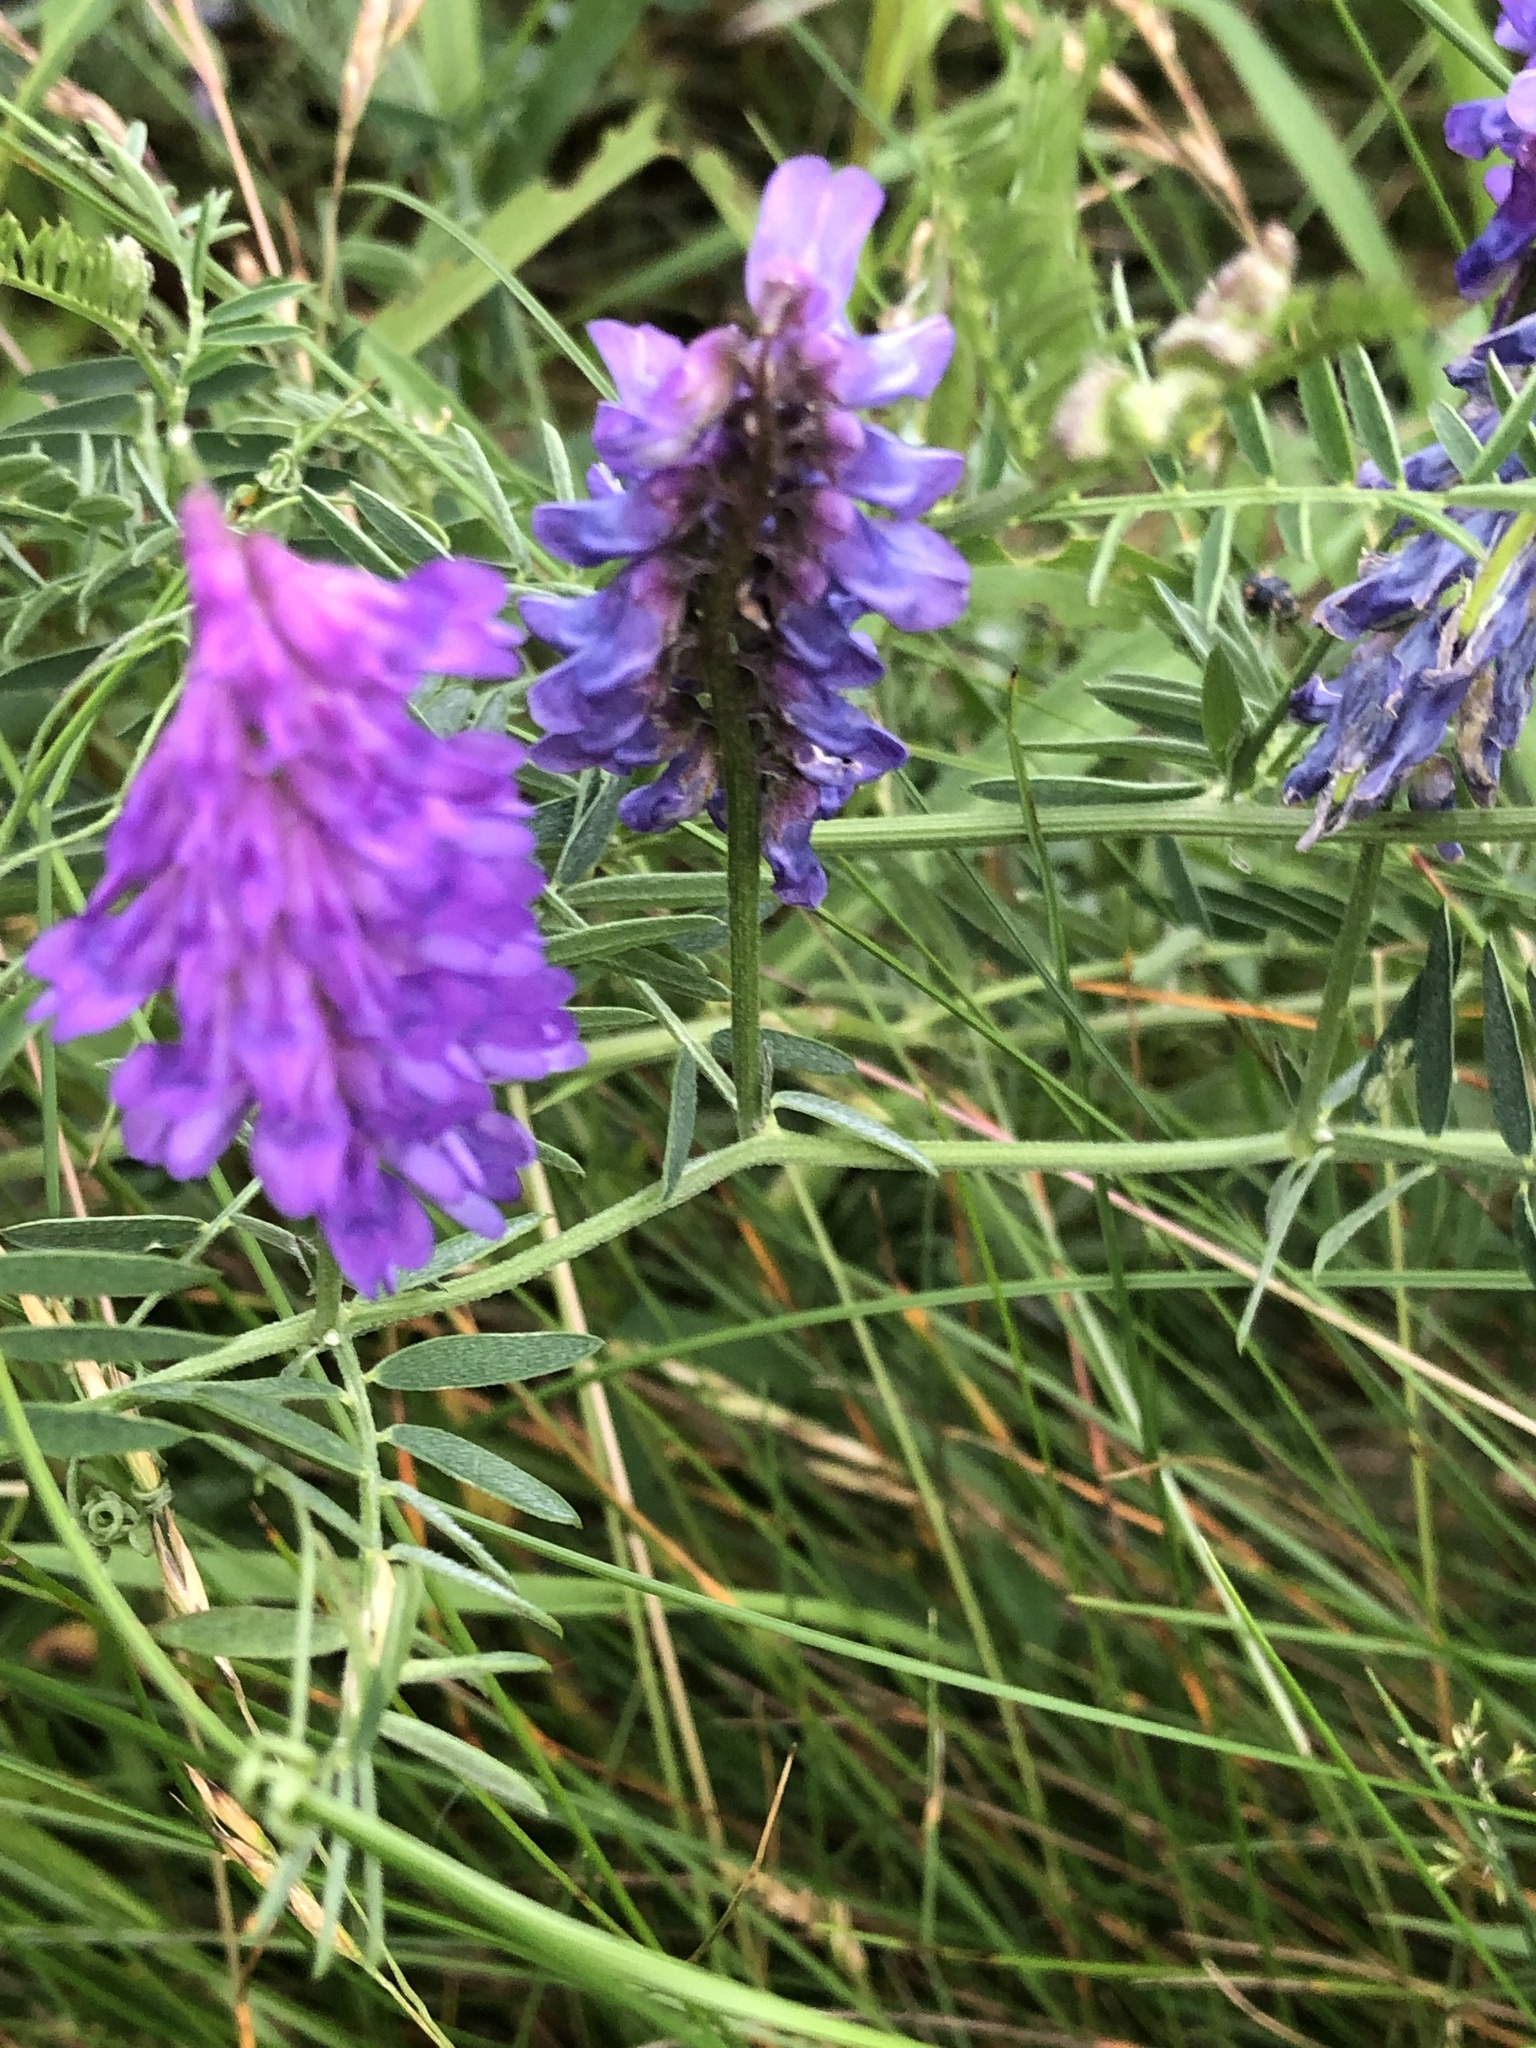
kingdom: Plantae
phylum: Tracheophyta
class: Magnoliopsida
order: Fabales
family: Fabaceae
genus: Vicia
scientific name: Vicia cracca
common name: Bird vetch
